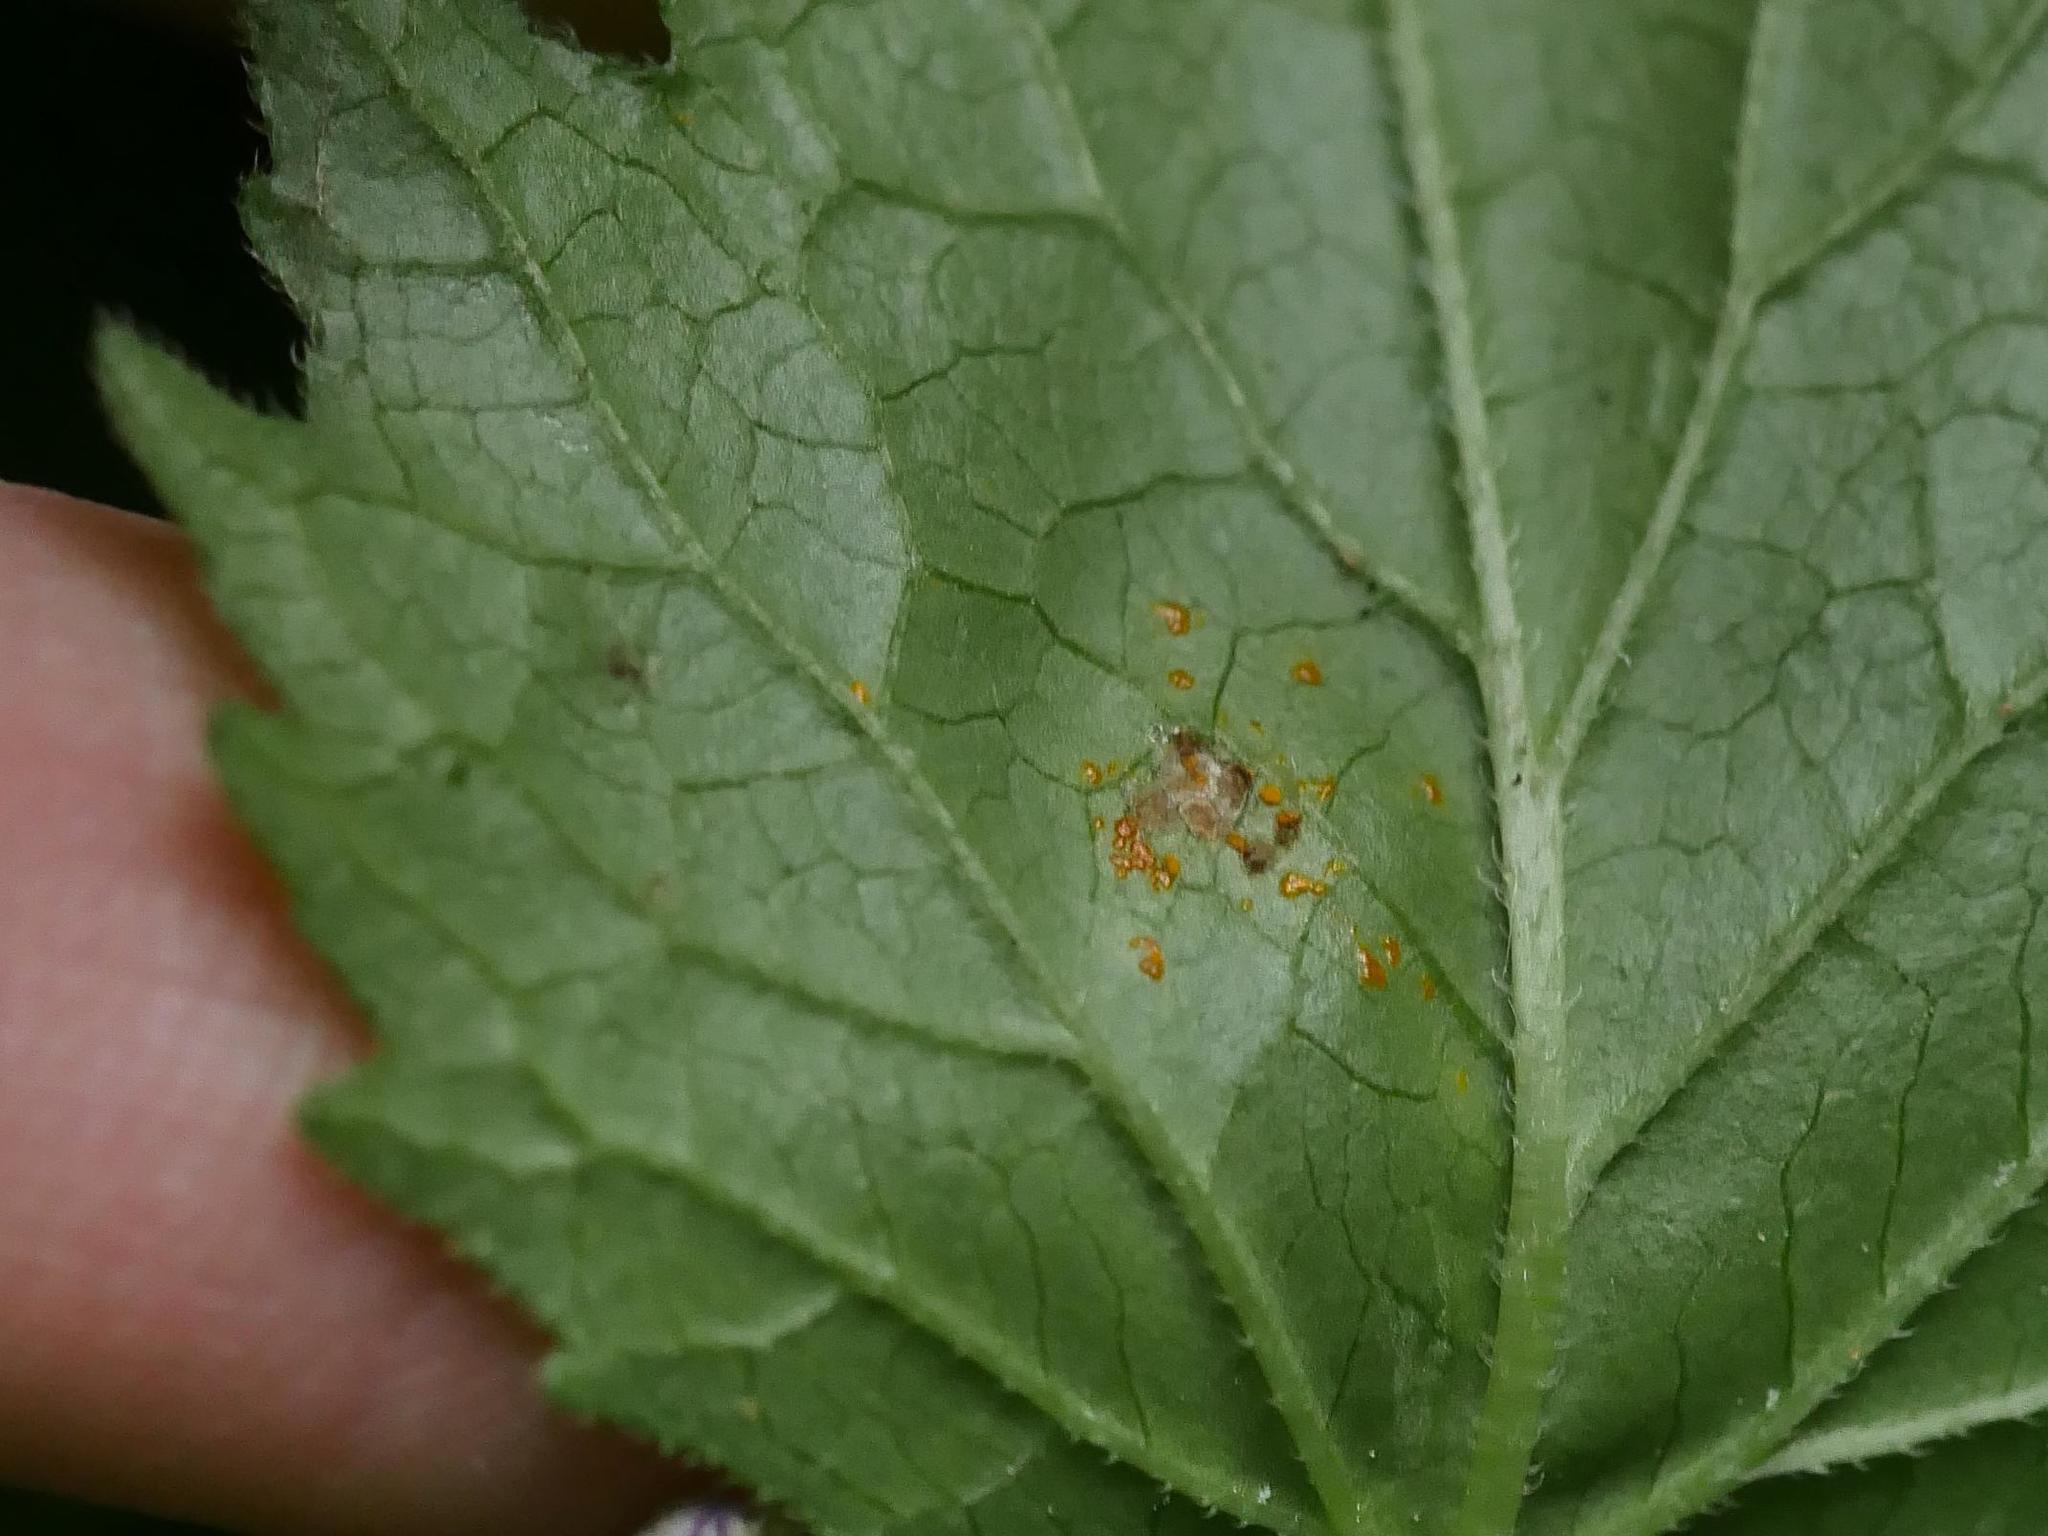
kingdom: Fungi
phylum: Basidiomycota
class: Pucciniomycetes
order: Pucciniales
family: Coleosporiaceae
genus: Coleosporium
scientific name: Coleosporium campanulae
